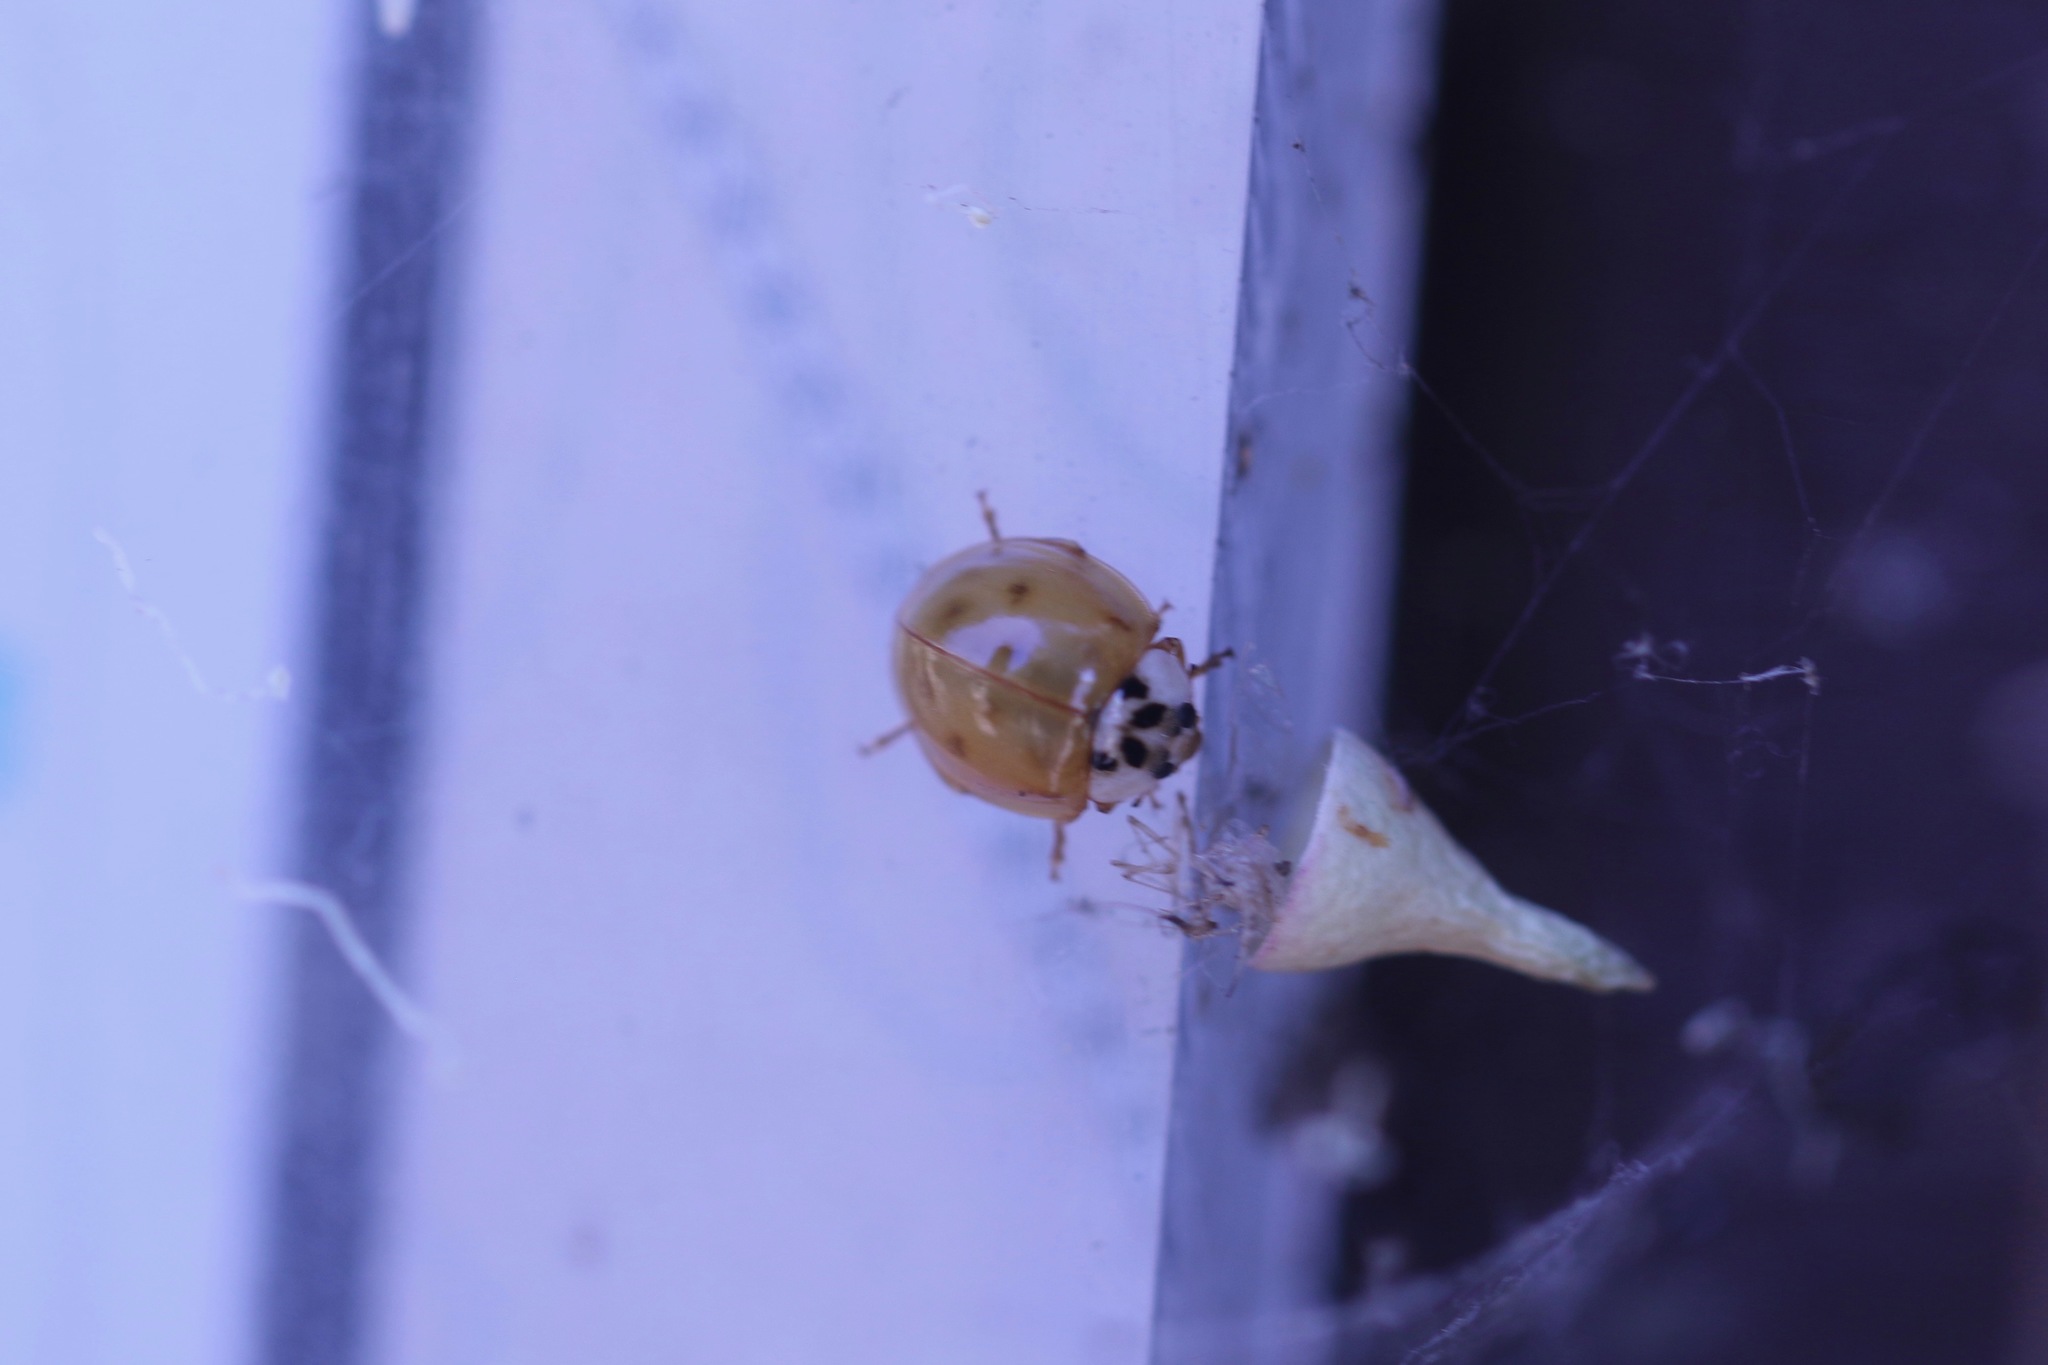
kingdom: Animalia
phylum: Arthropoda
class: Insecta
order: Coleoptera
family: Coccinellidae
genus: Harmonia
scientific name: Harmonia axyridis
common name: Harlequin ladybird
